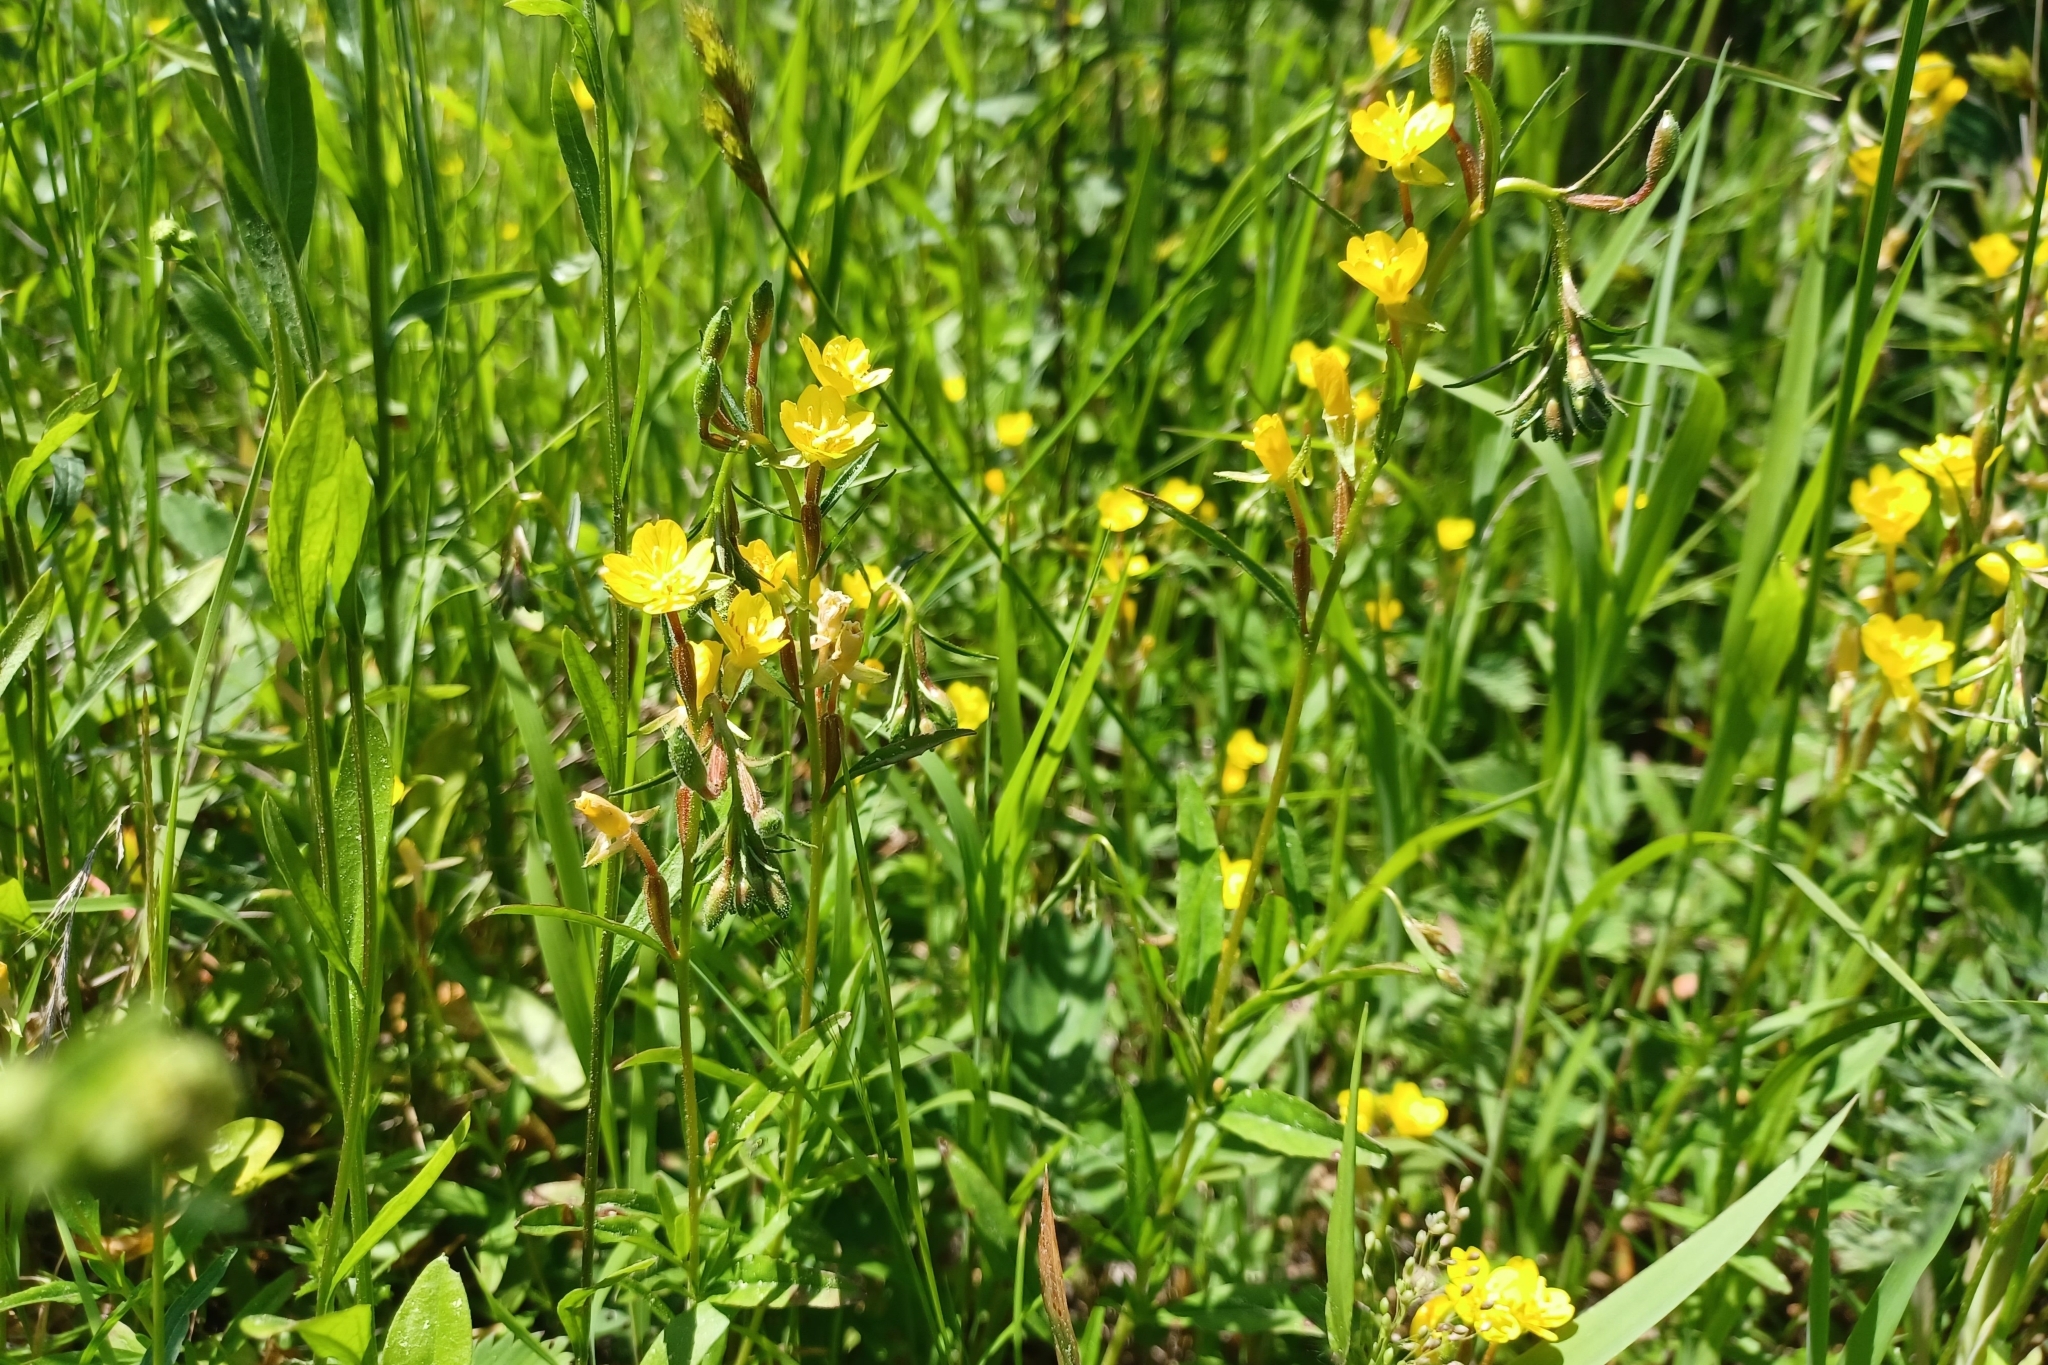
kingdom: Plantae
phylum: Tracheophyta
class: Magnoliopsida
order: Myrtales
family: Onagraceae
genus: Oenothera
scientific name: Oenothera perennis
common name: Small sundrops
